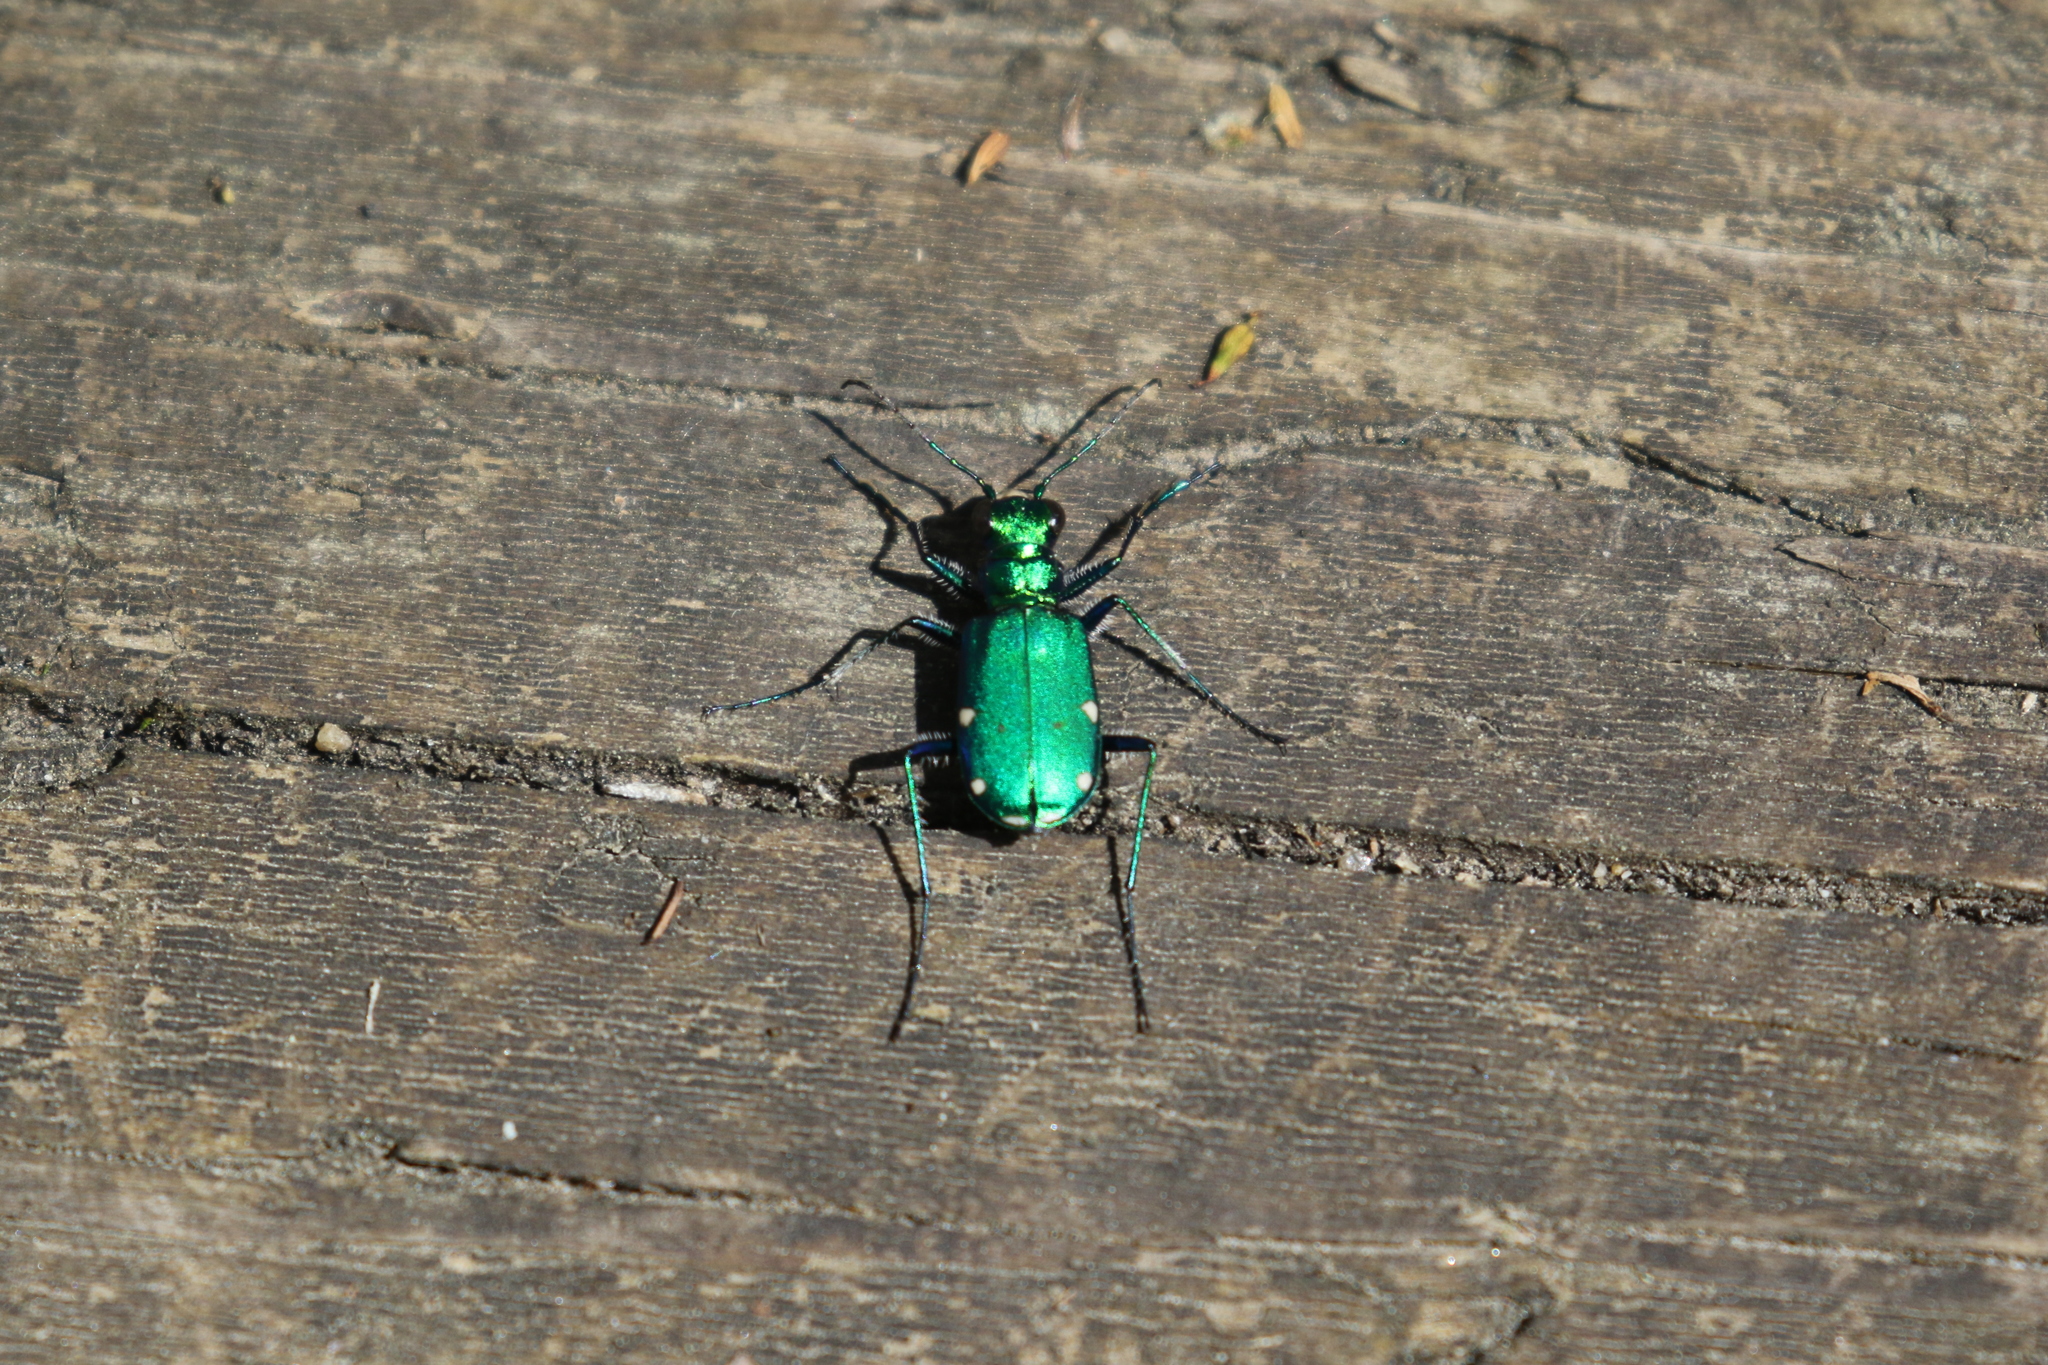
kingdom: Animalia
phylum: Arthropoda
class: Insecta
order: Coleoptera
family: Carabidae
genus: Cicindela
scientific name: Cicindela sexguttata
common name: Six-spotted tiger beetle
